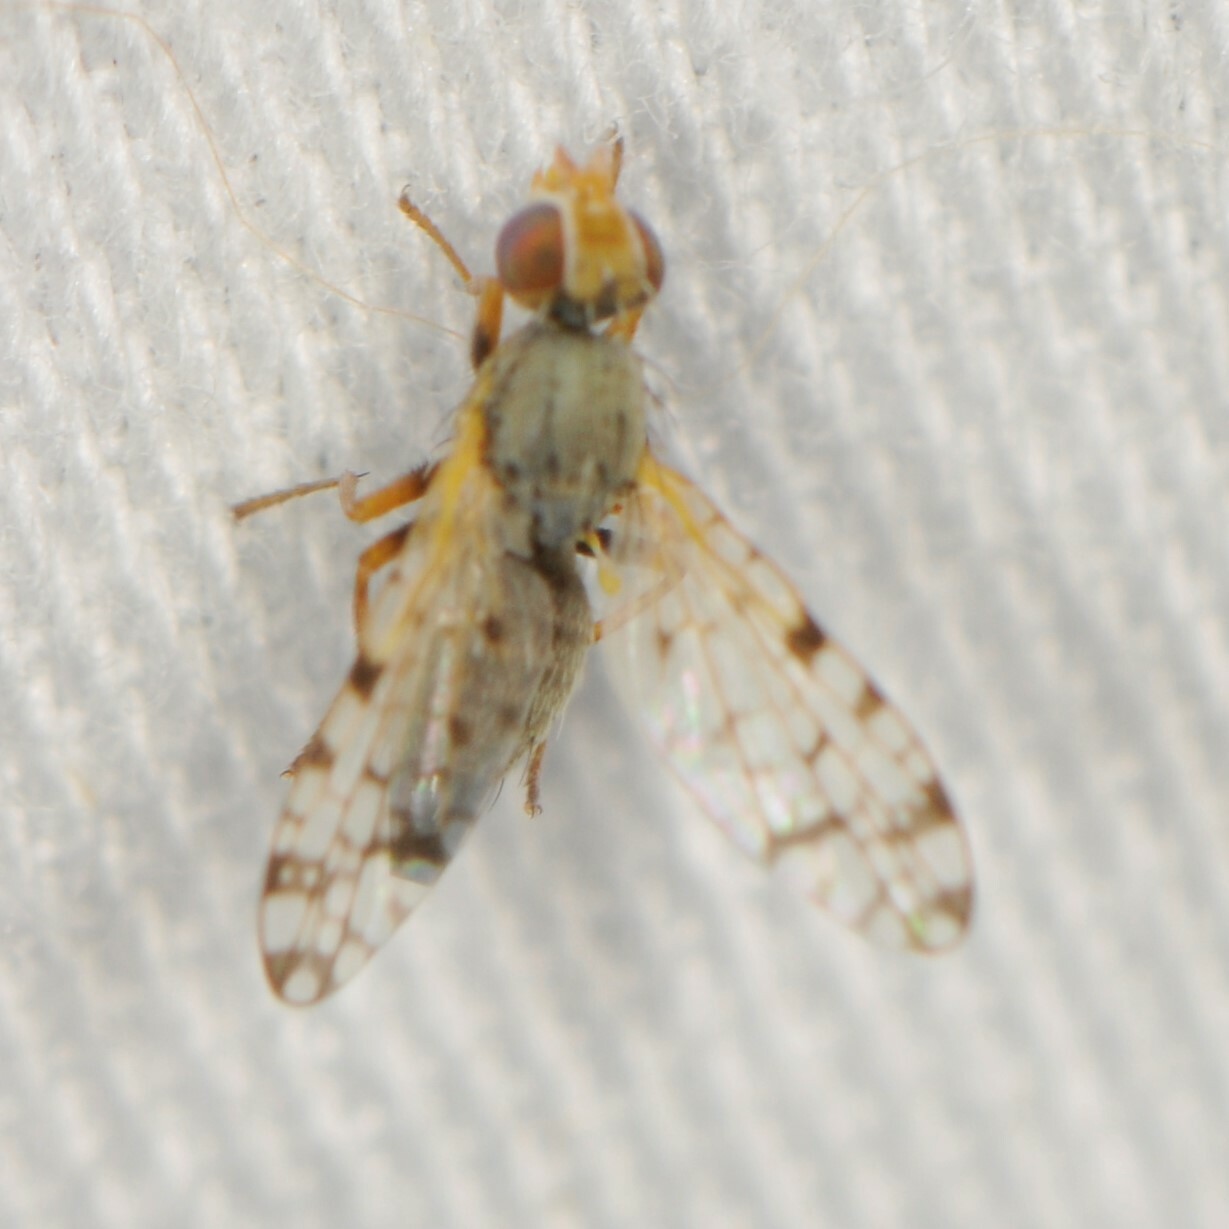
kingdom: Animalia
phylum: Arthropoda
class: Insecta
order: Diptera
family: Tephritidae
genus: Dioxyna
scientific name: Dioxyna
